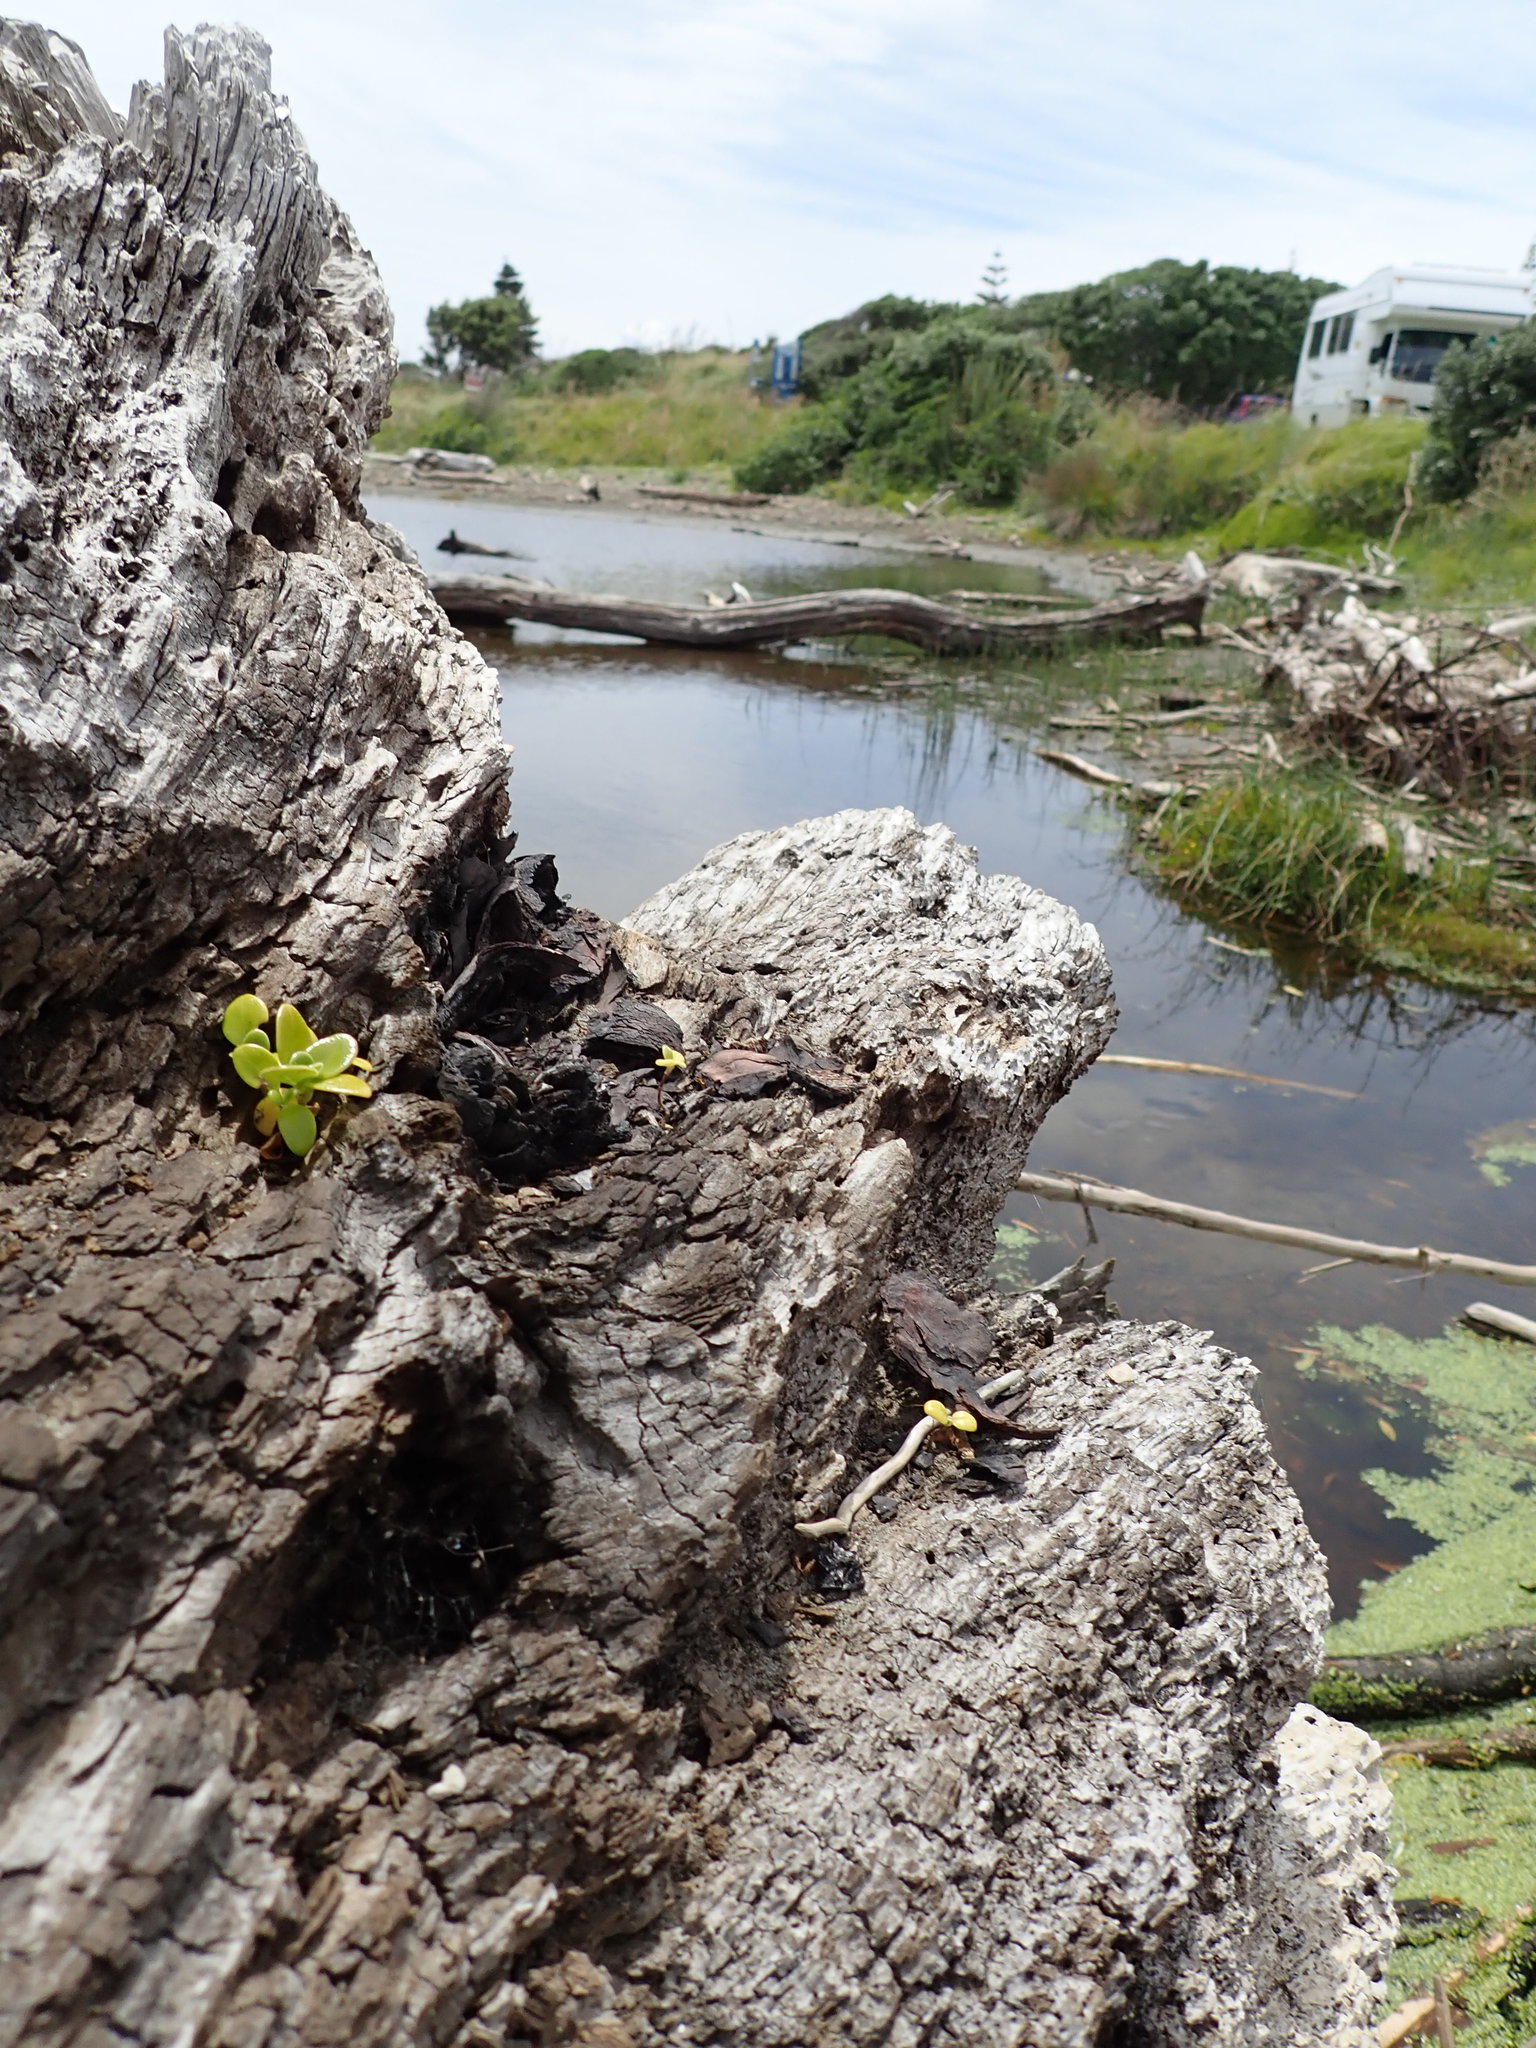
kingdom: Plantae
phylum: Tracheophyta
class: Magnoliopsida
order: Gentianales
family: Rubiaceae
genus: Coprosma
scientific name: Coprosma repens
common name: Tree bedstraw
